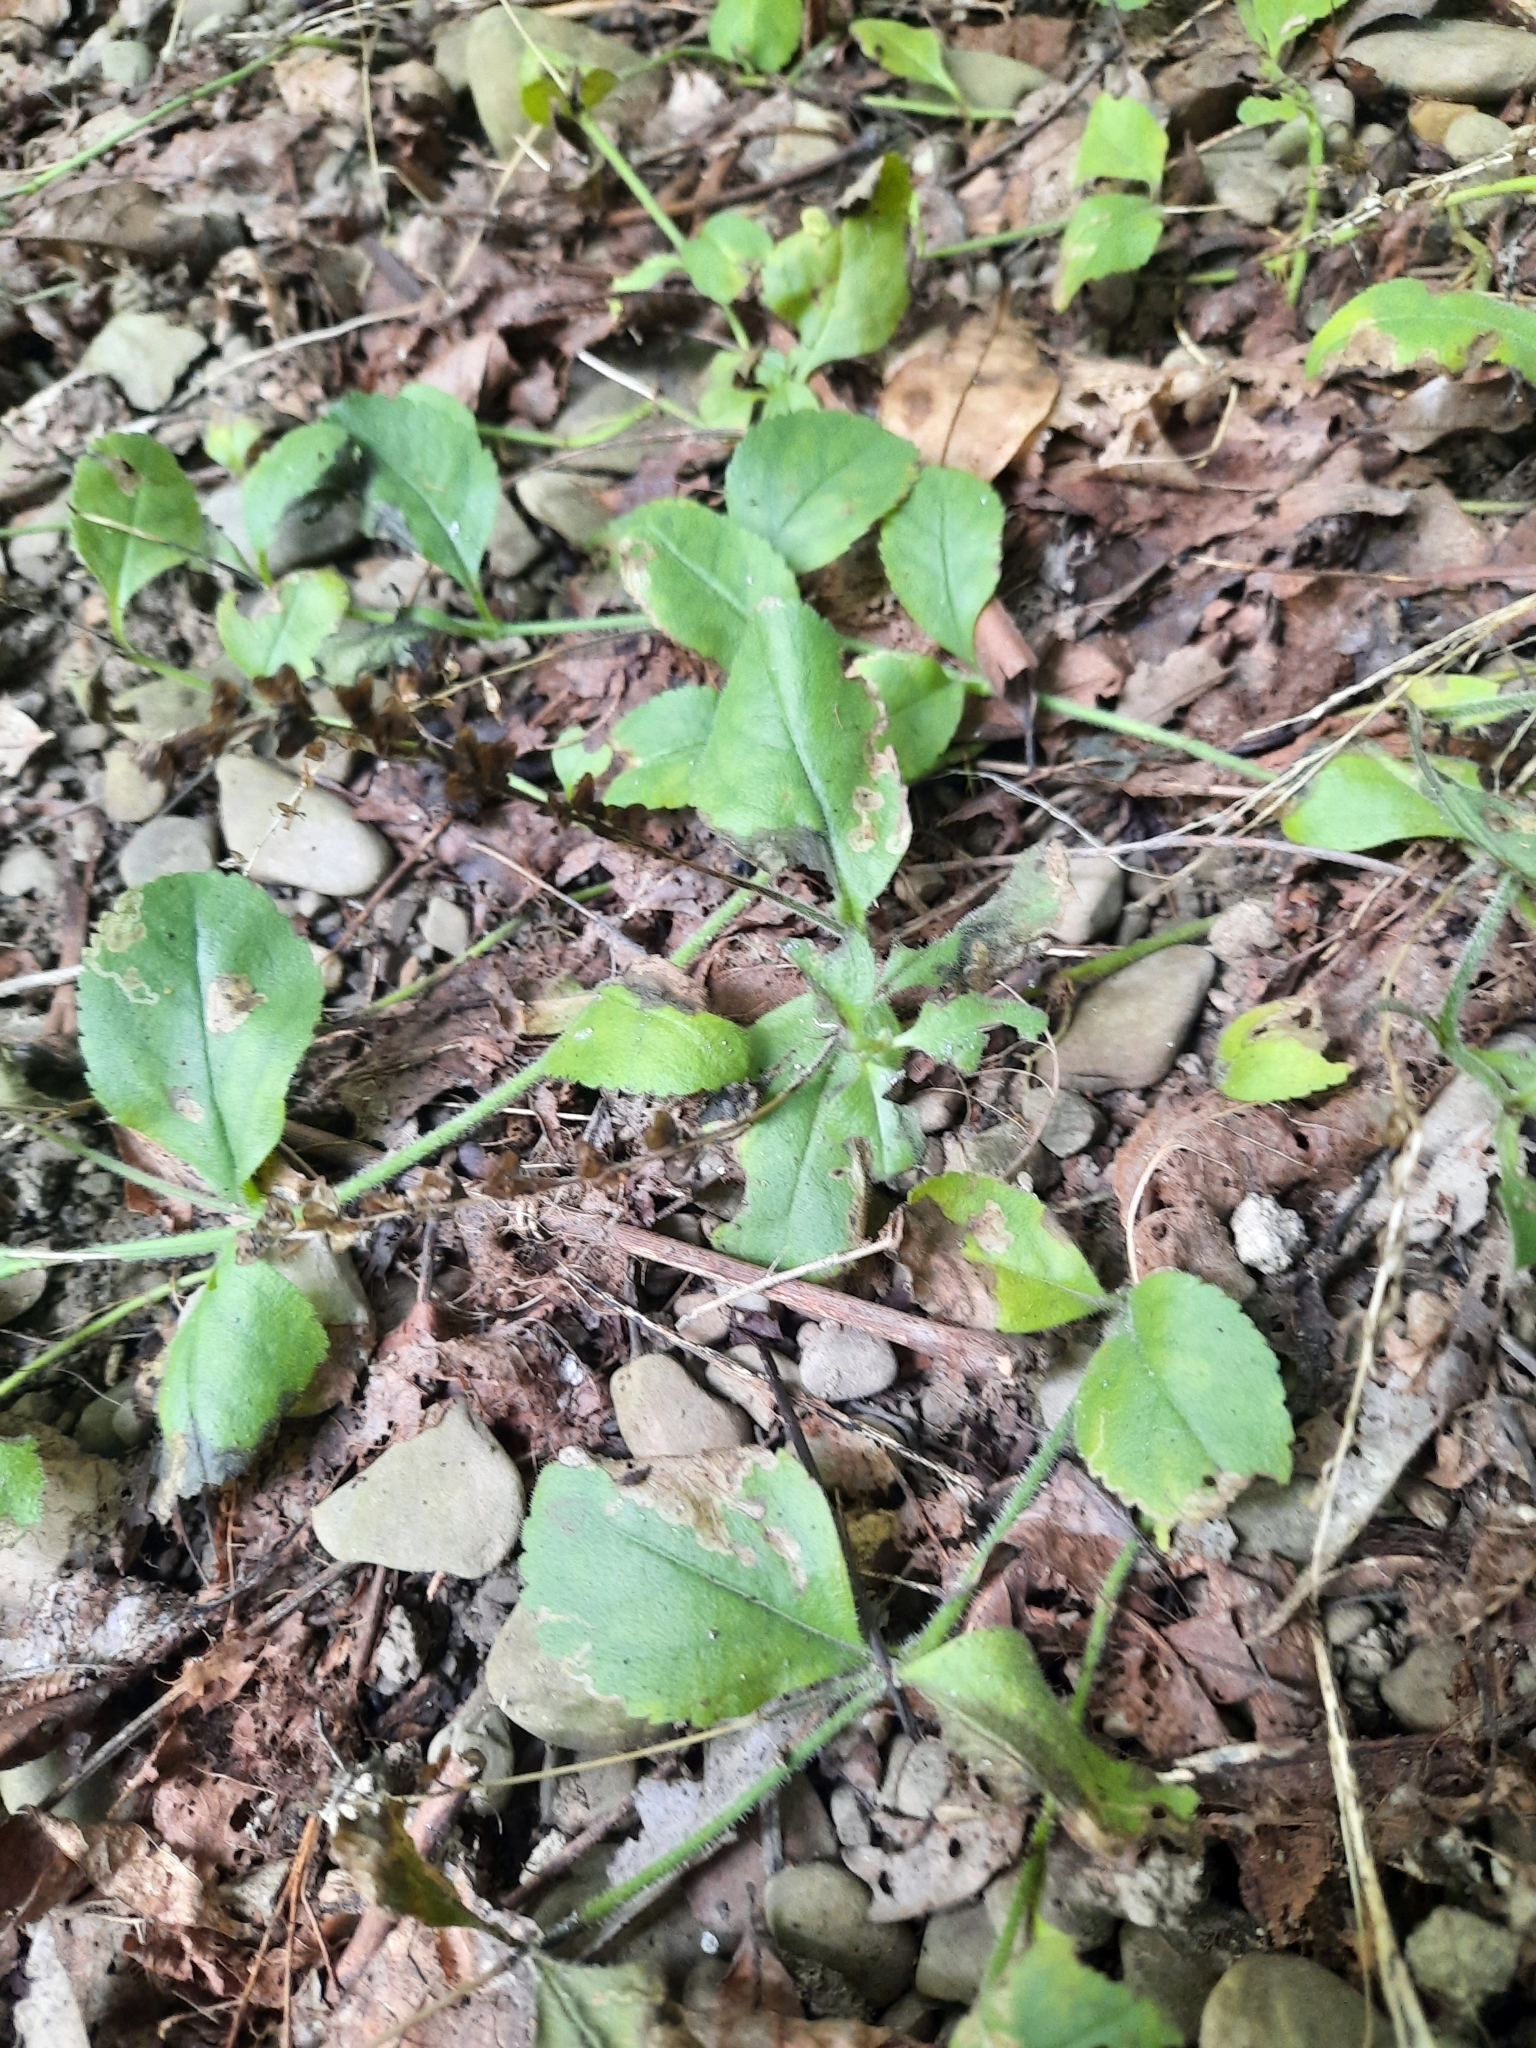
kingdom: Plantae
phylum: Tracheophyta
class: Magnoliopsida
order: Lamiales
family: Plantaginaceae
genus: Veronica
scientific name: Veronica officinalis
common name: Common speedwell
